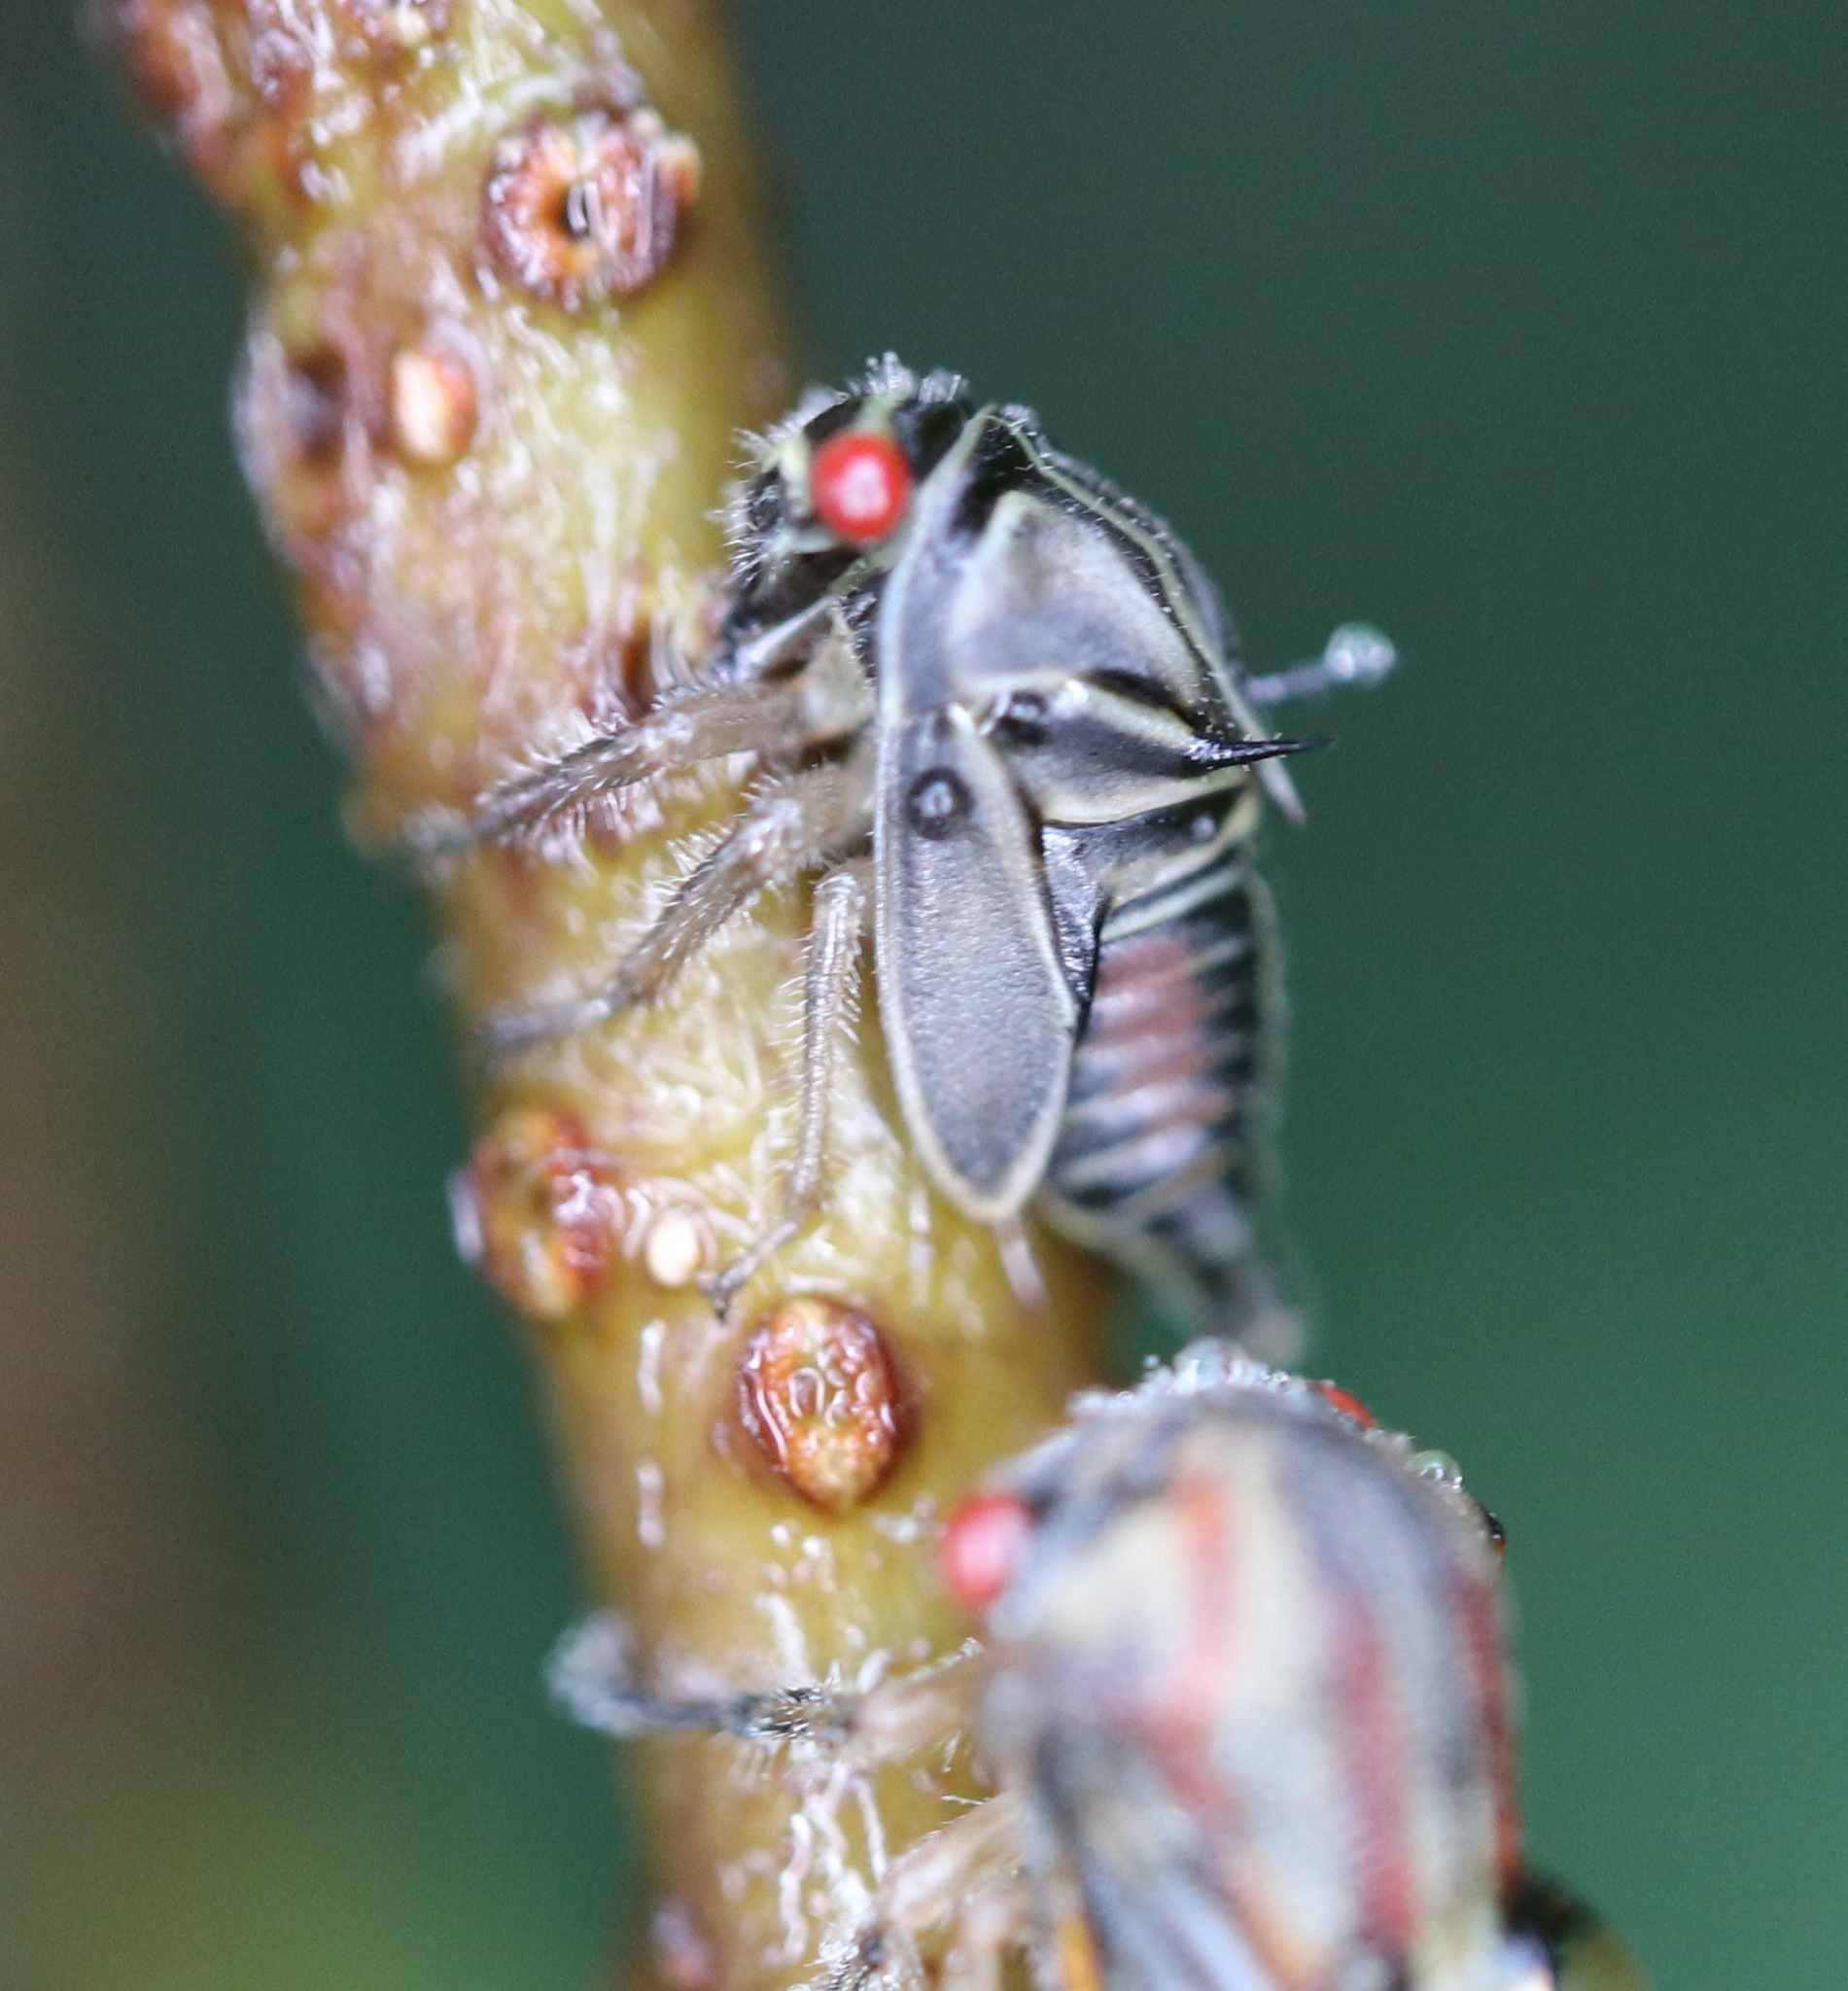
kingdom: Animalia
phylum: Arthropoda
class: Insecta
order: Hemiptera
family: Membracidae
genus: Platycotis
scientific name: Platycotis vittatus
